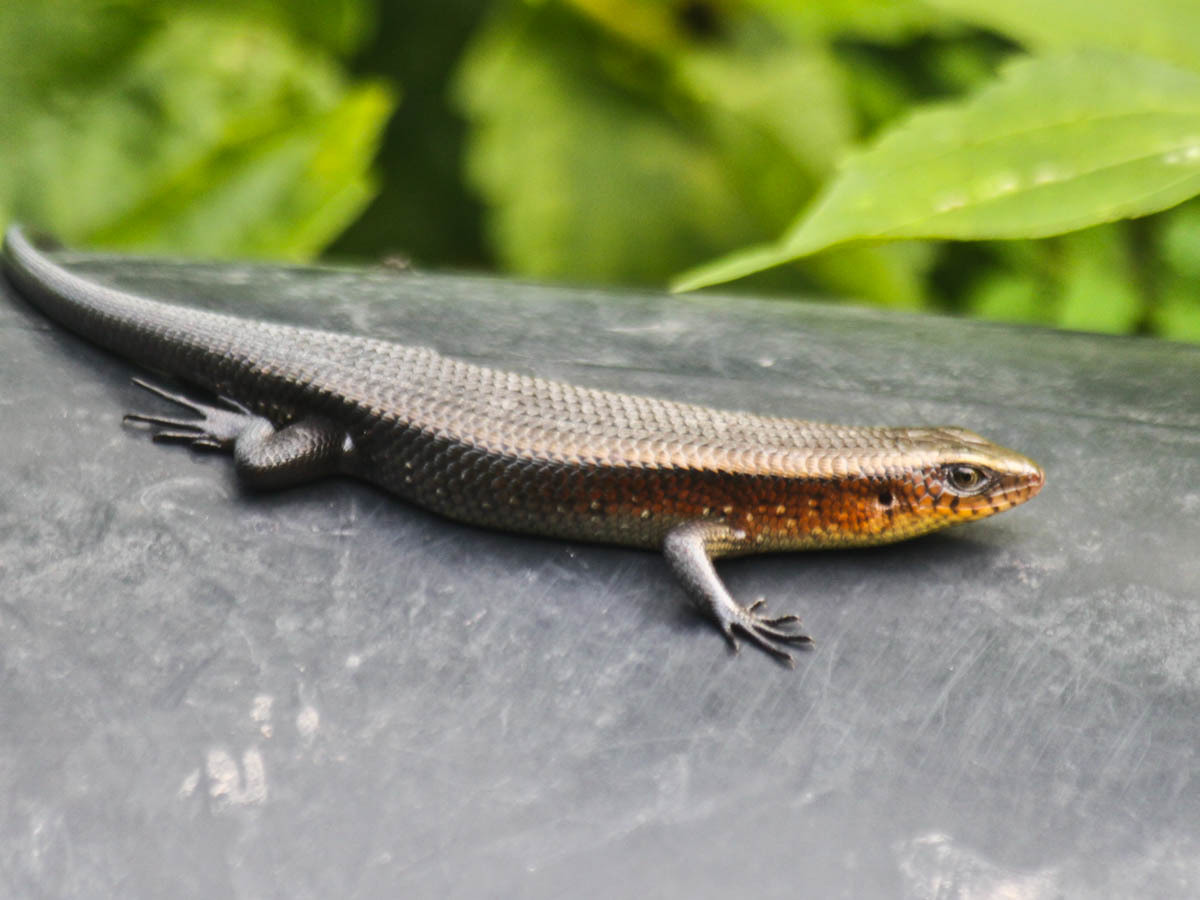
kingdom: Animalia
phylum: Chordata
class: Squamata
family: Scincidae
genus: Eutropis
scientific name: Eutropis multifasciata
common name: Common mabuya
